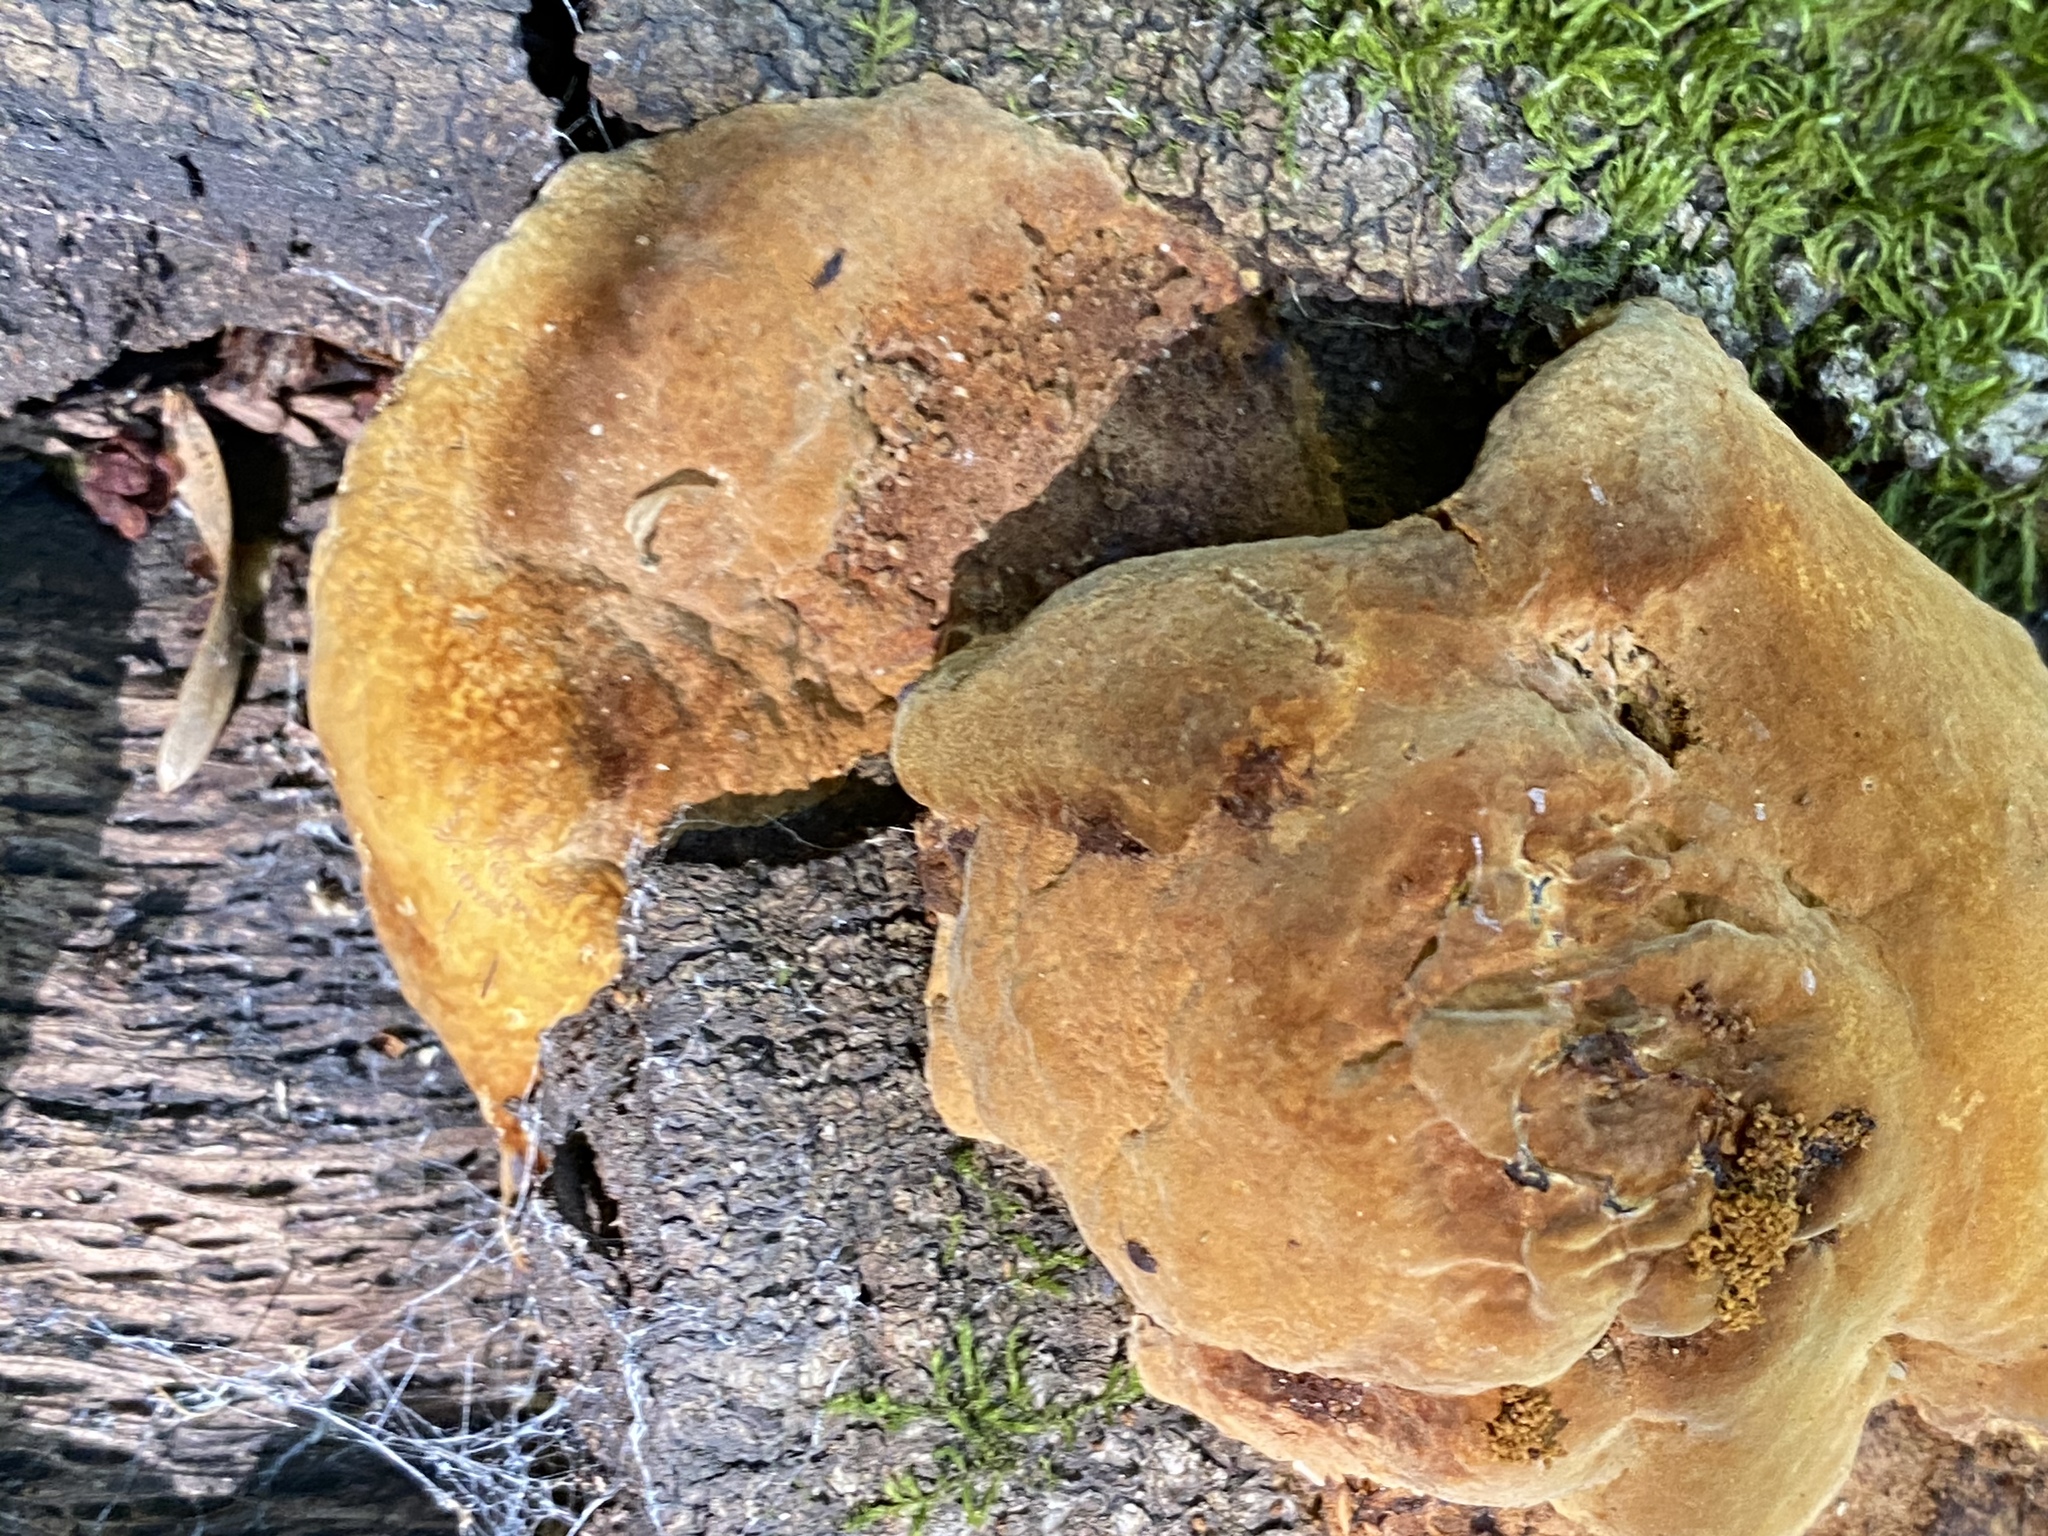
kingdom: Fungi
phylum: Basidiomycota
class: Agaricomycetes
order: Hymenochaetales
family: Hymenochaetaceae
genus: Phellinus
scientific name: Phellinus gilvus
